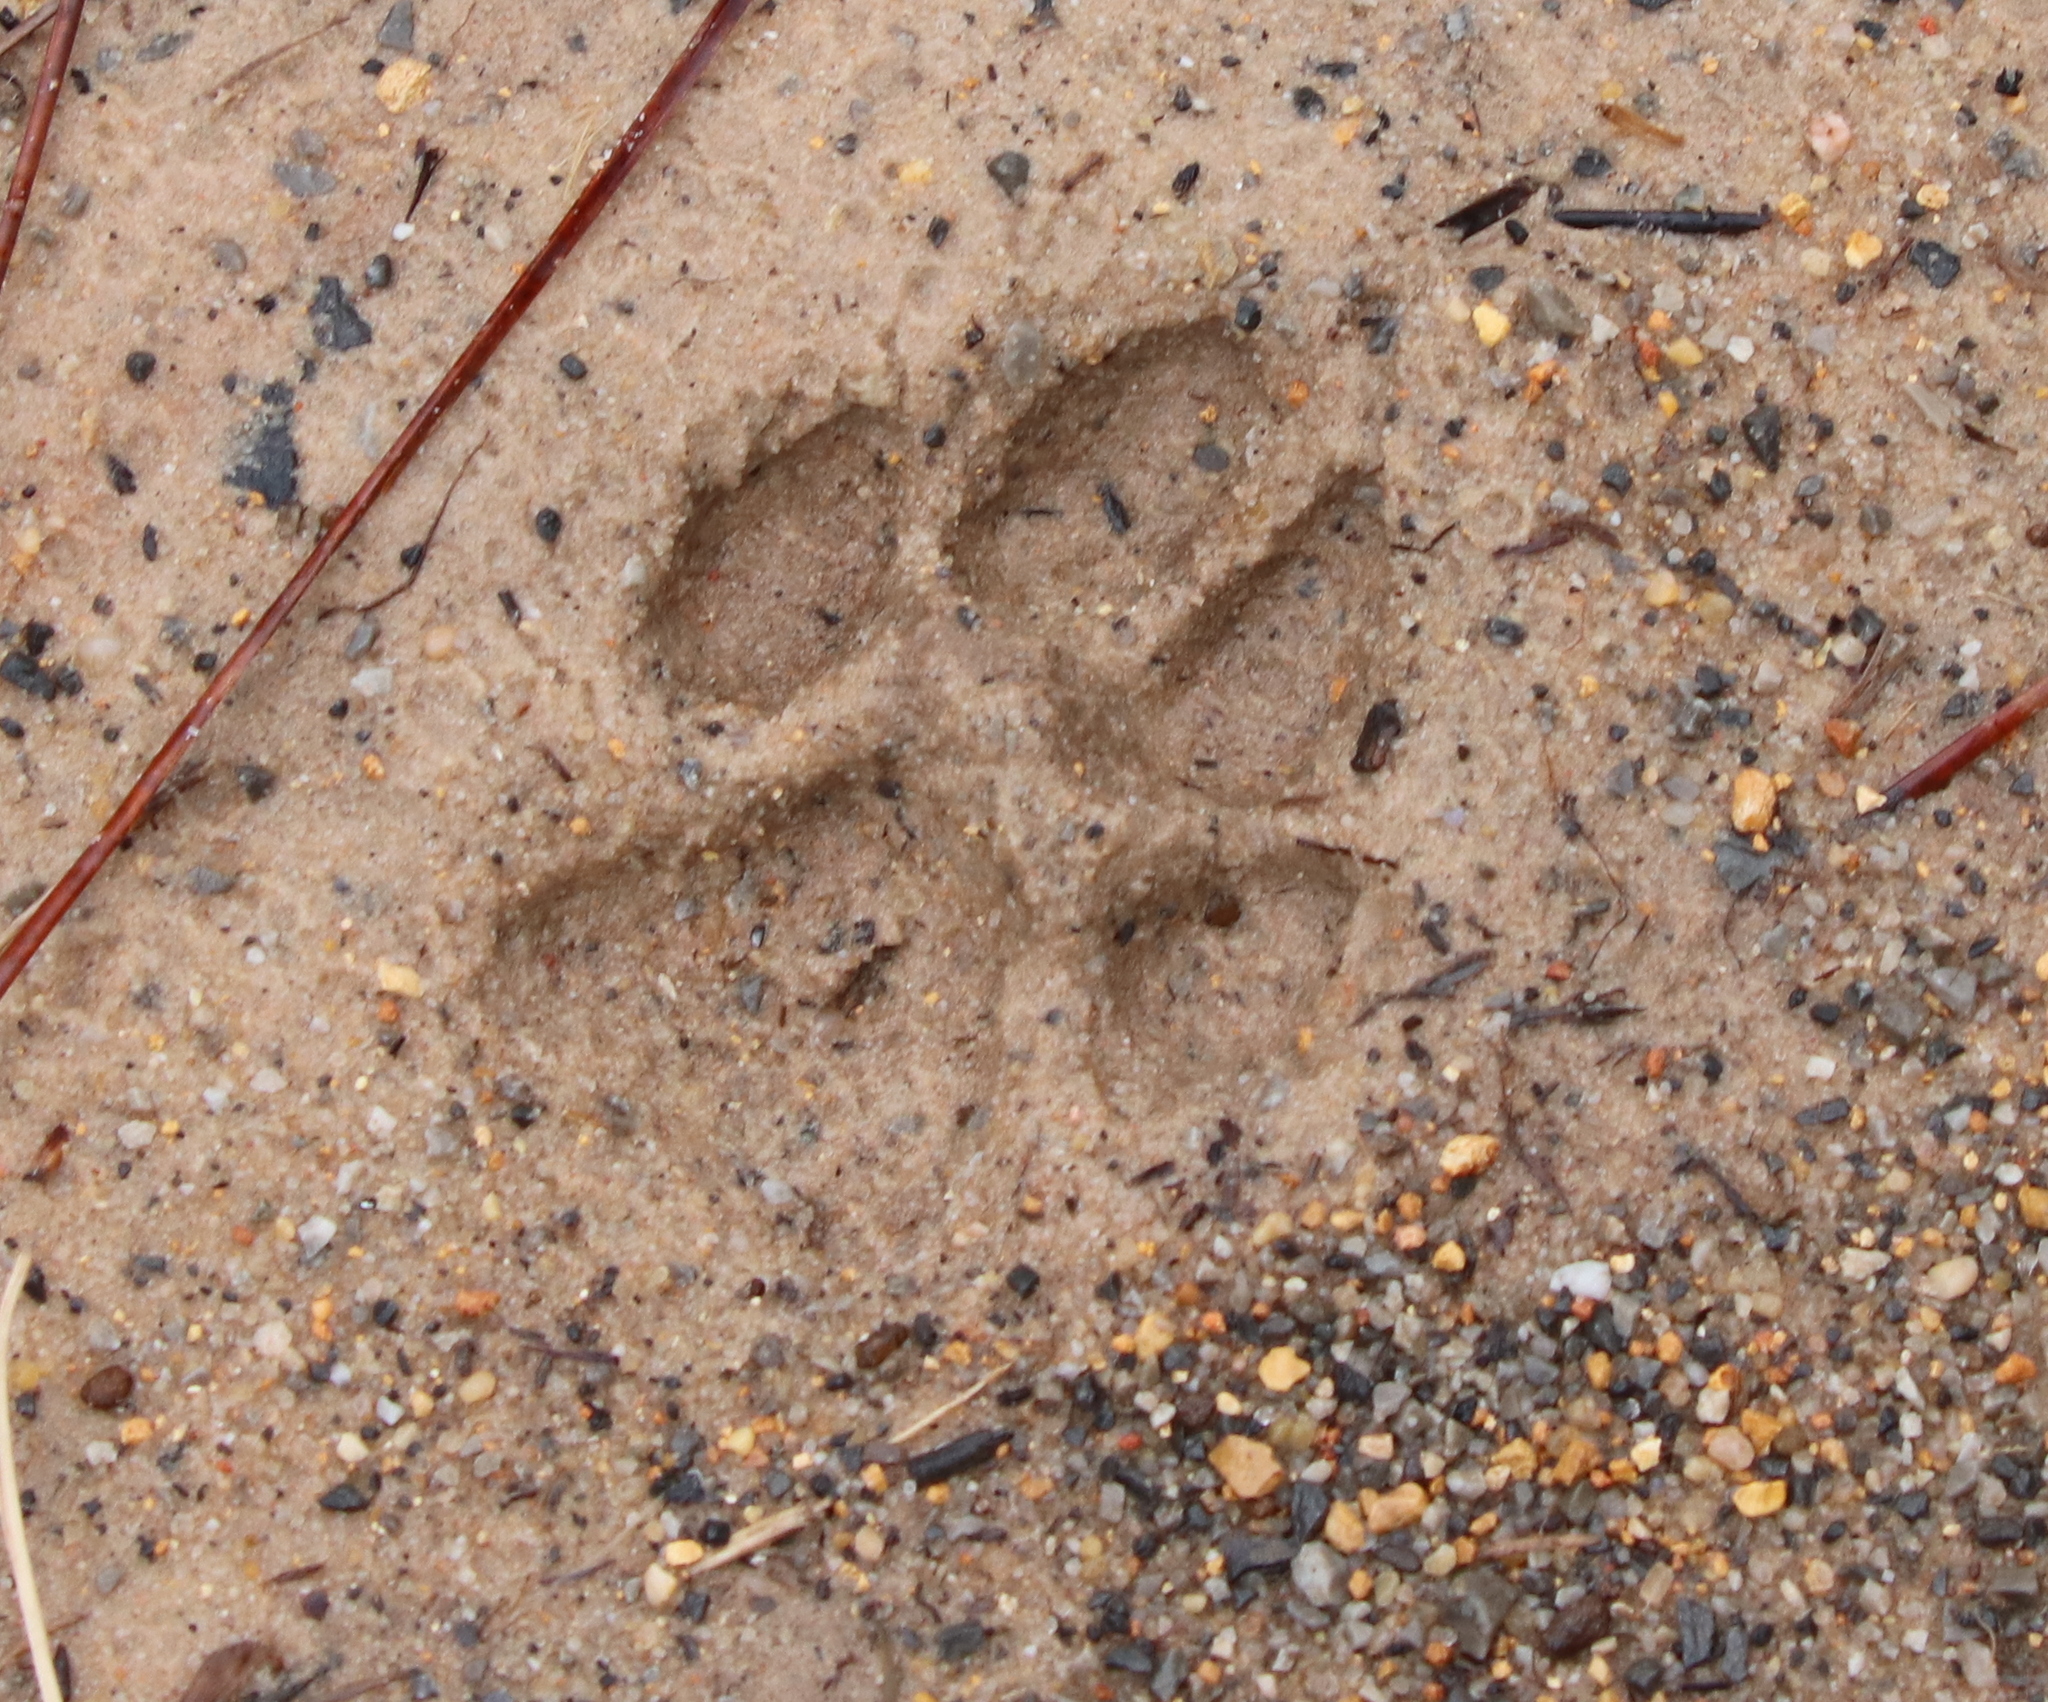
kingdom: Animalia
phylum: Chordata
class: Mammalia
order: Carnivora
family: Canidae
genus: Canis
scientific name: Canis latrans
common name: Coyote
